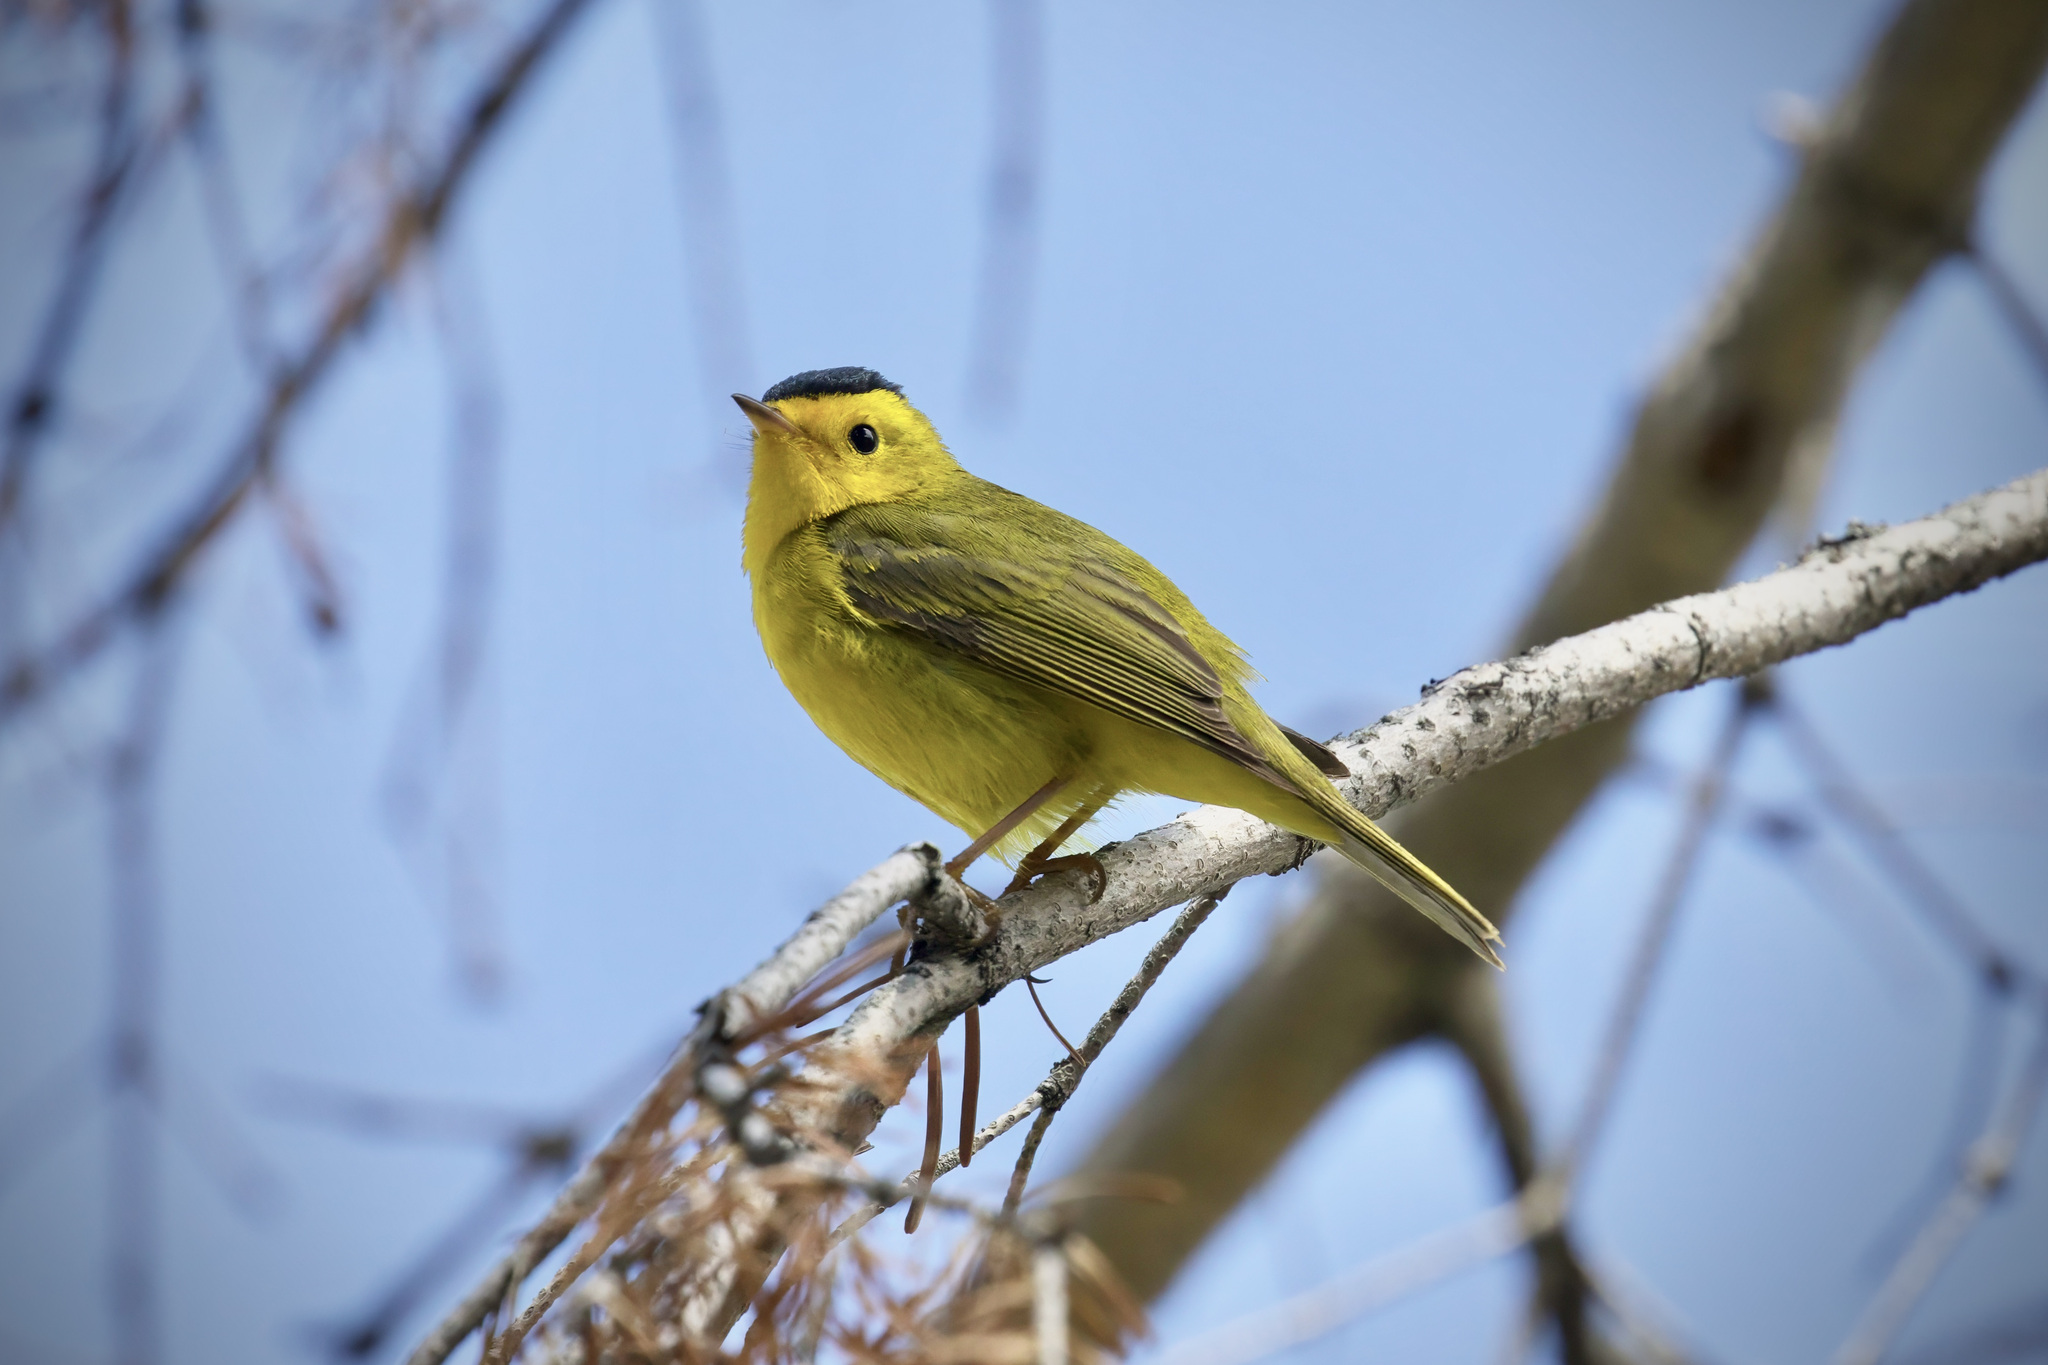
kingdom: Animalia
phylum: Chordata
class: Aves
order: Passeriformes
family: Parulidae
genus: Cardellina
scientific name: Cardellina pusilla
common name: Wilson's warbler
